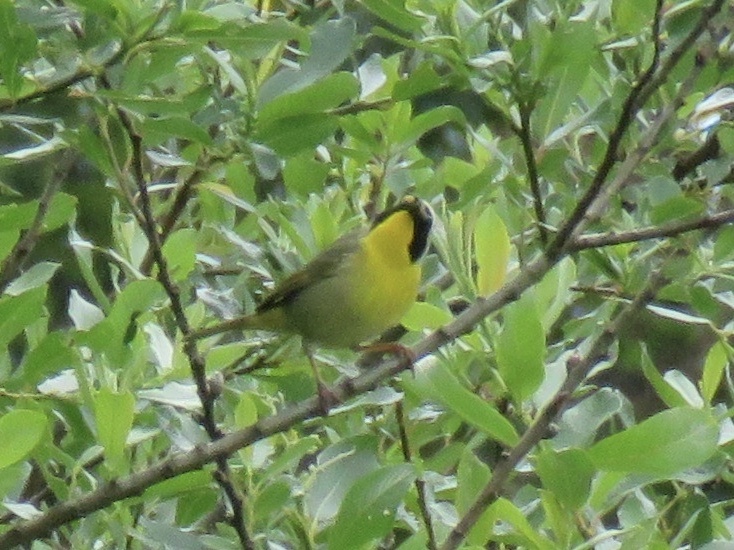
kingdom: Animalia
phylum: Chordata
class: Aves
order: Passeriformes
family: Parulidae
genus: Geothlypis
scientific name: Geothlypis trichas
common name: Common yellowthroat
